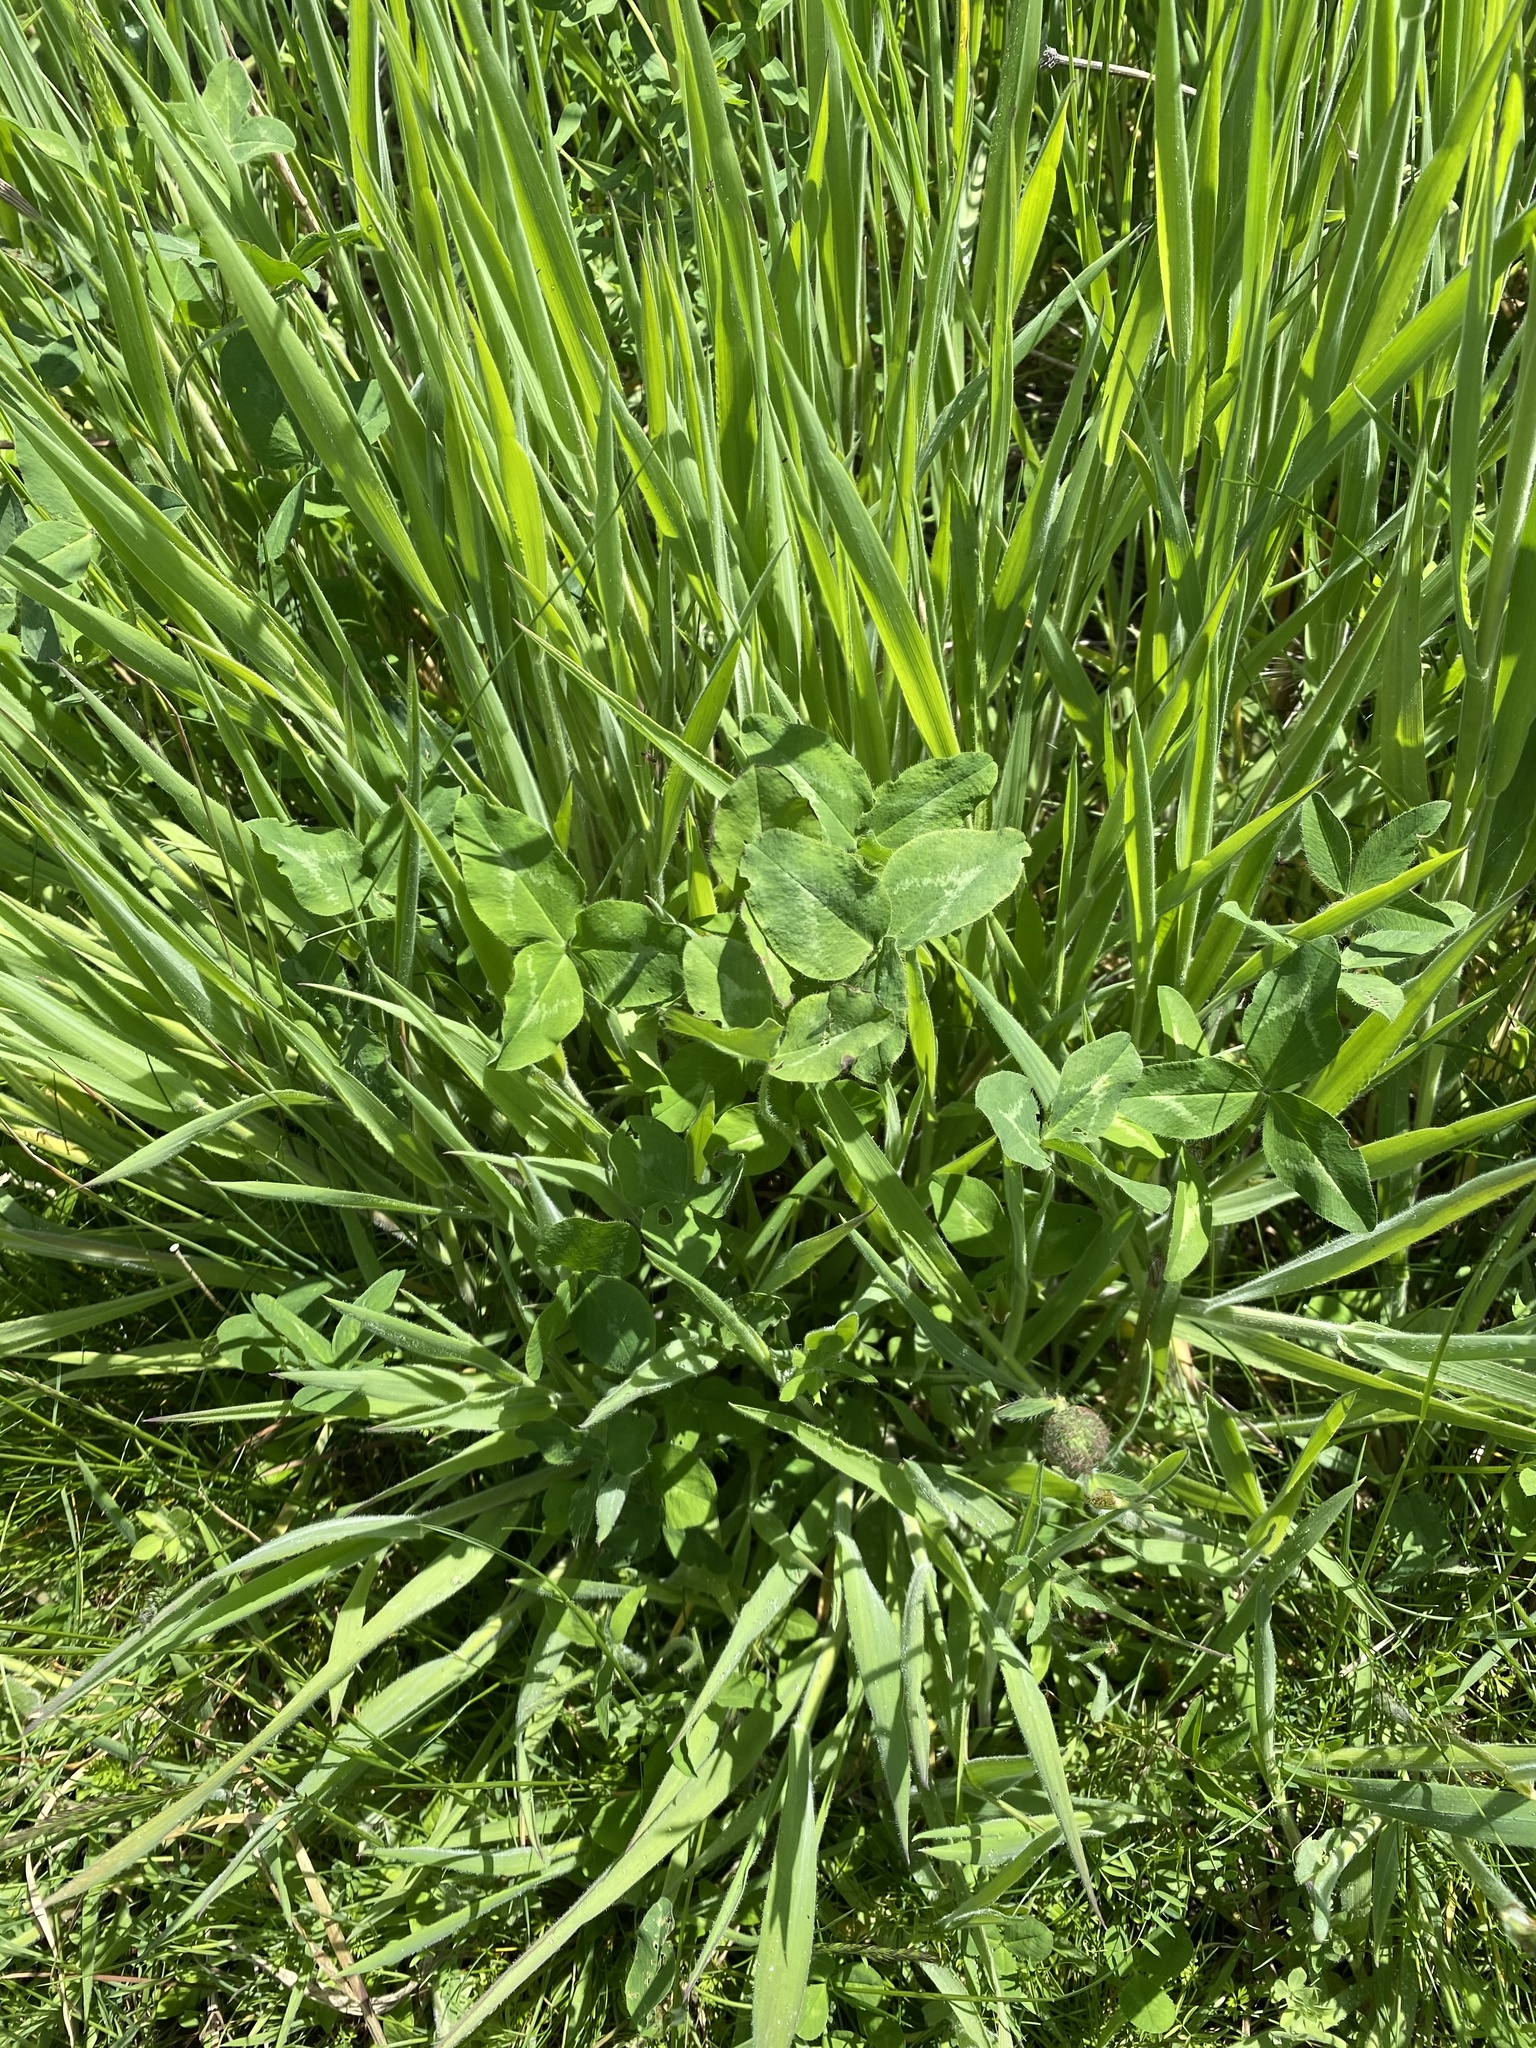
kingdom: Plantae
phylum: Tracheophyta
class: Magnoliopsida
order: Fabales
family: Fabaceae
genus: Trifolium
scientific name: Trifolium pratense
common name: Red clover
